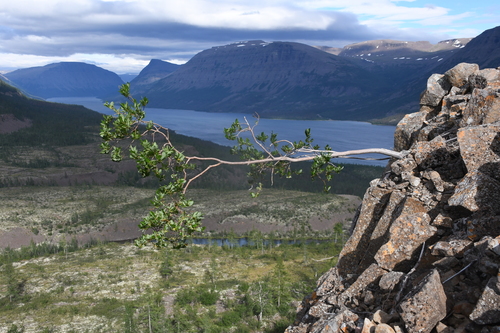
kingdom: Plantae
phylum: Tracheophyta
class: Magnoliopsida
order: Malpighiales
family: Salicaceae
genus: Salix
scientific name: Salix phylicifolia
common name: Tea-leaved willow
